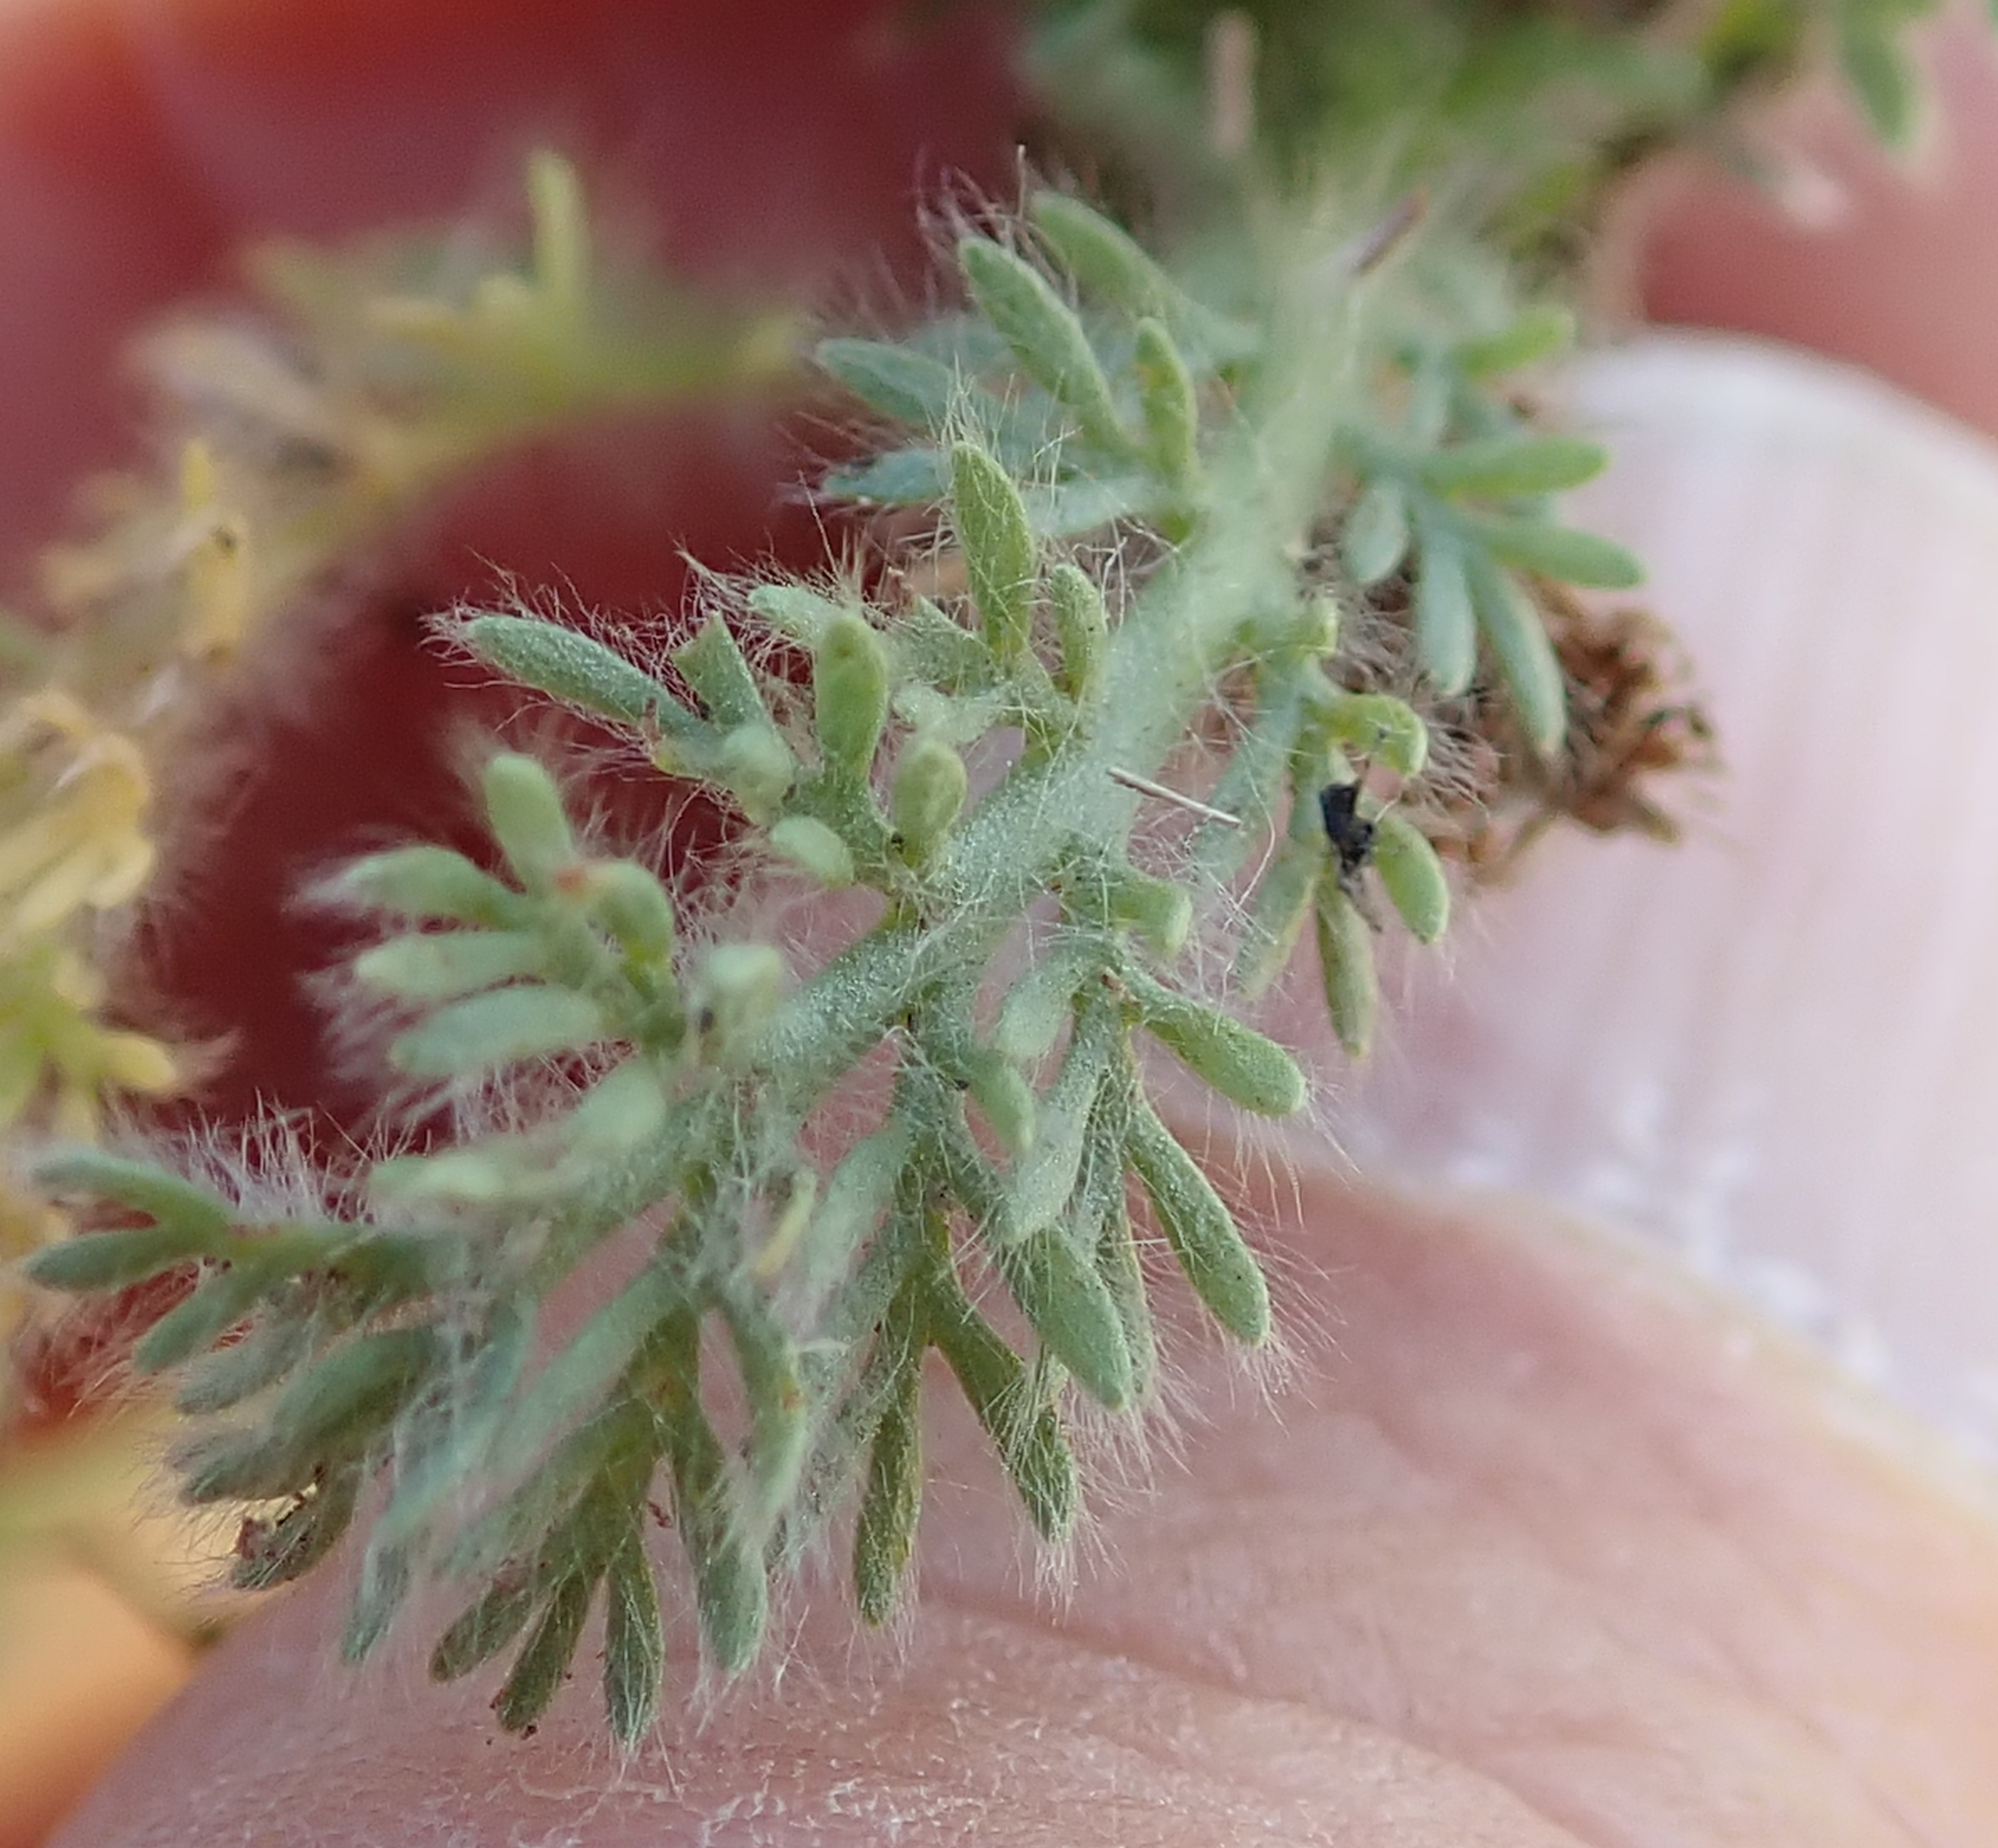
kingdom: Plantae
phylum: Tracheophyta
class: Magnoliopsida
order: Asterales
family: Asteraceae
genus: Cotula
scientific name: Cotula socialis
